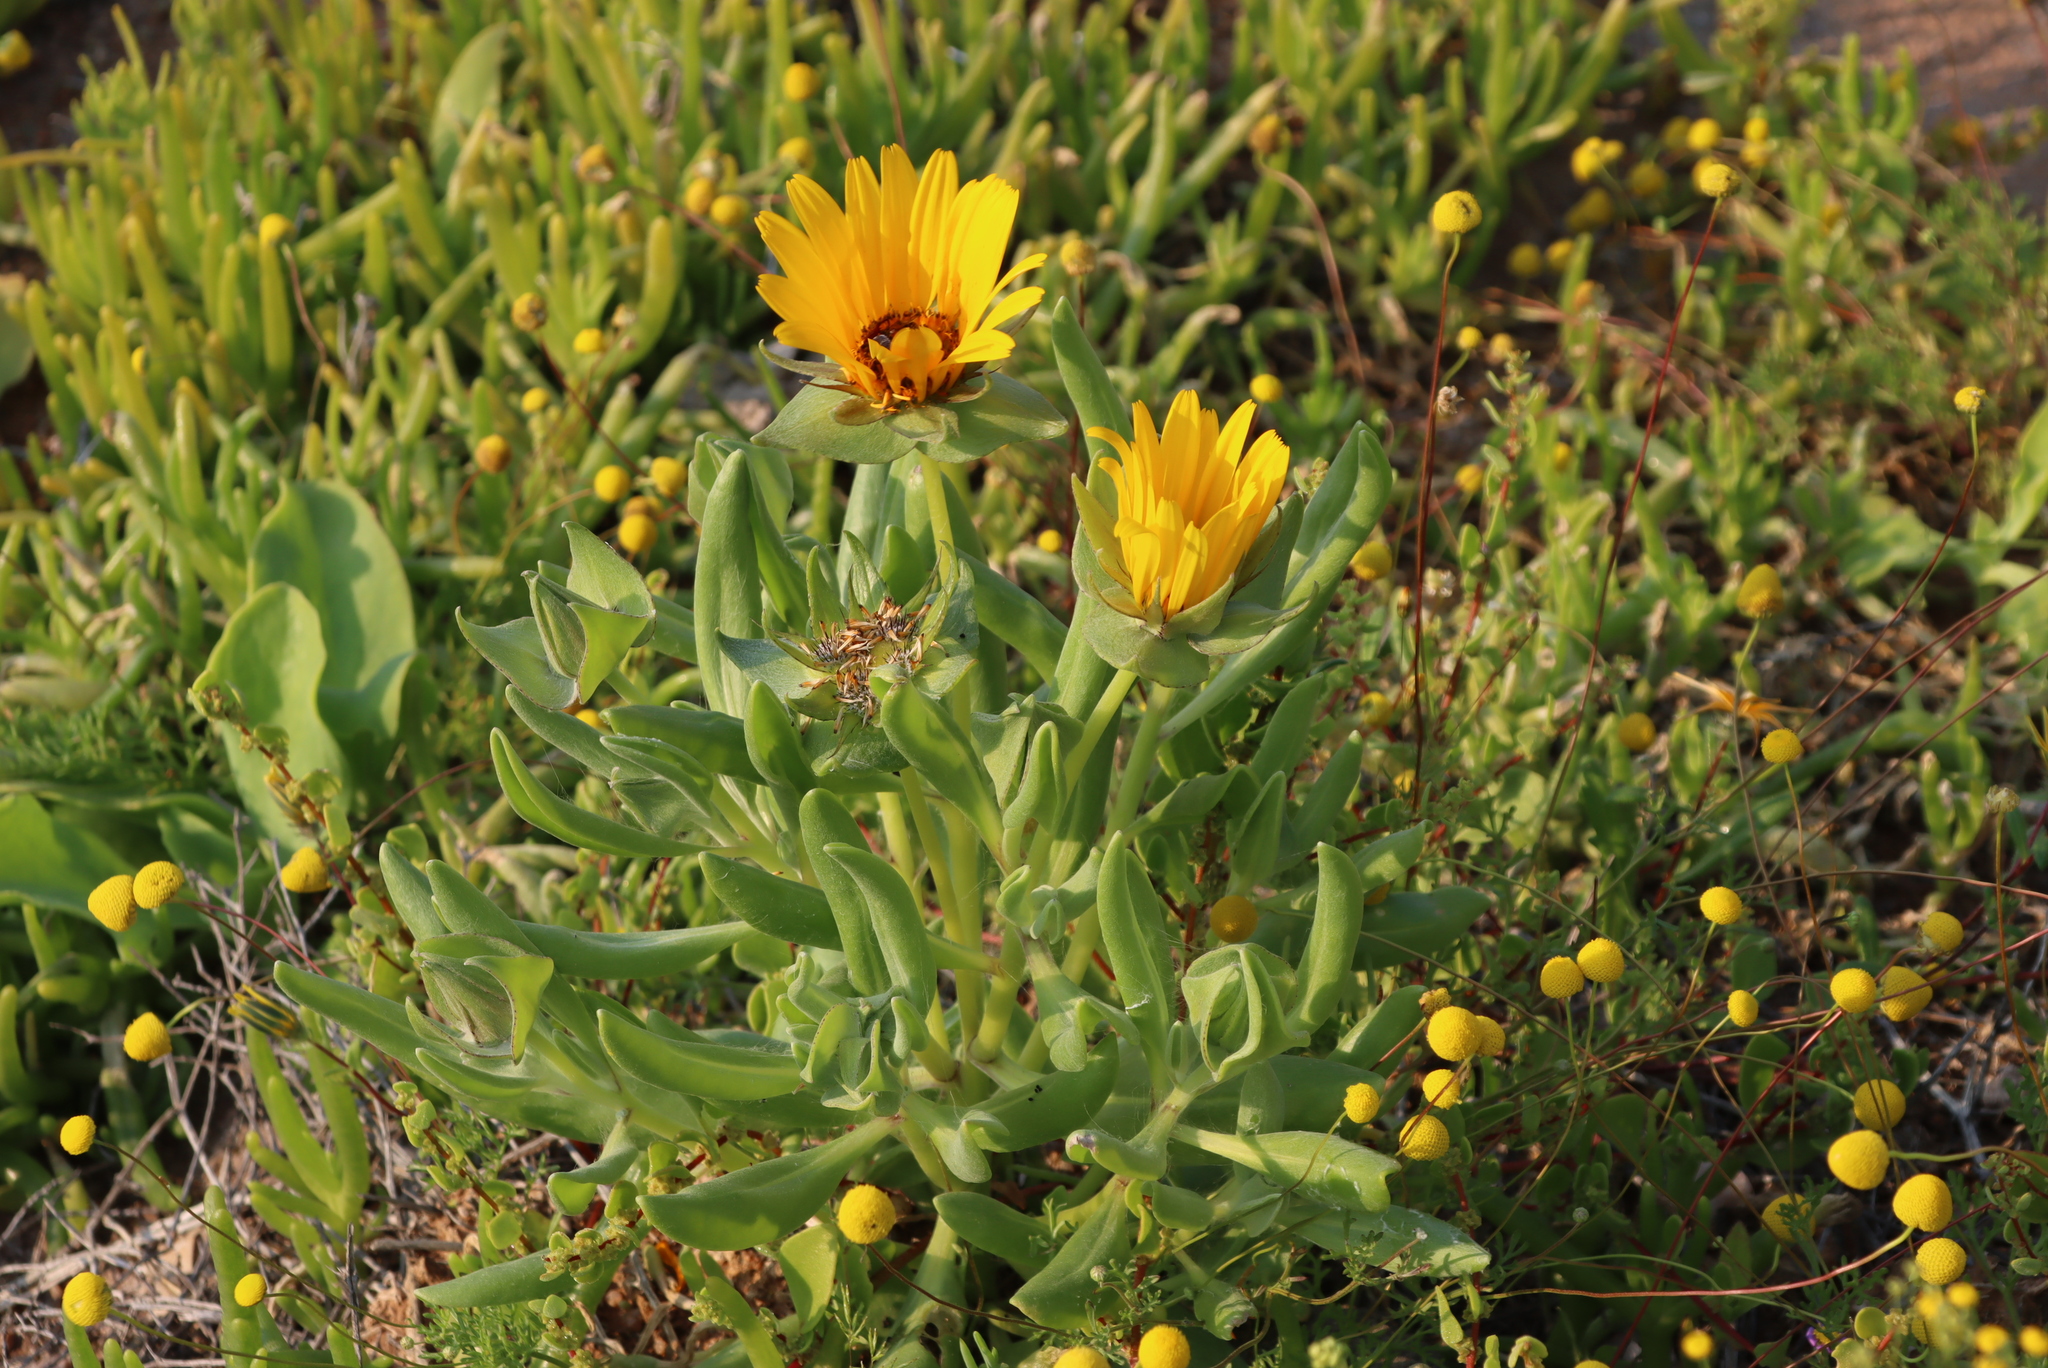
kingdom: Plantae
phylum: Tracheophyta
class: Magnoliopsida
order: Asterales
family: Asteraceae
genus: Didelta
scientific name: Didelta carnosa
